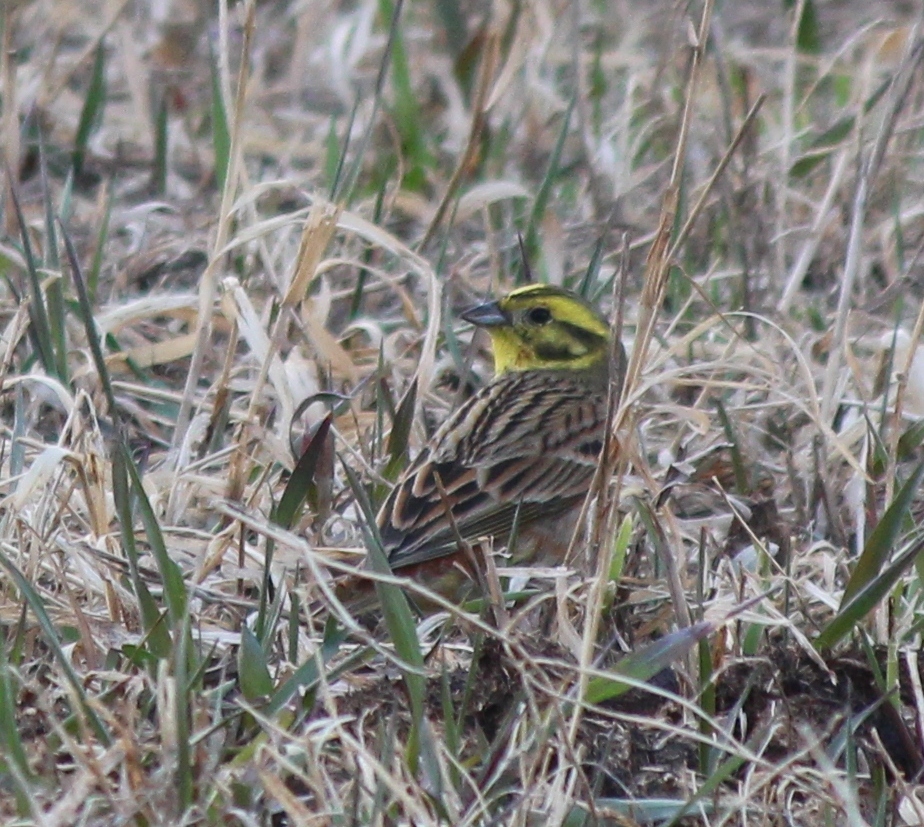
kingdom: Animalia
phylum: Chordata
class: Aves
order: Passeriformes
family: Emberizidae
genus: Emberiza
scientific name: Emberiza citrinella
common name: Yellowhammer
